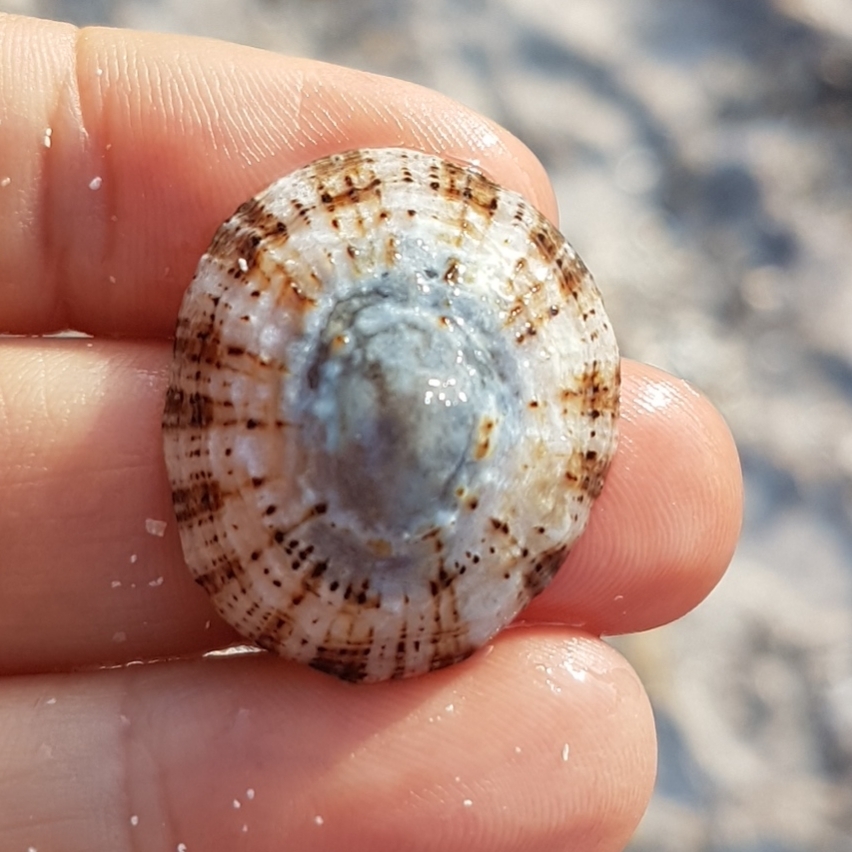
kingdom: Animalia
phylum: Mollusca
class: Gastropoda
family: Patellidae
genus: Patella
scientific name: Patella rustica
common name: Lusitanian limpet
